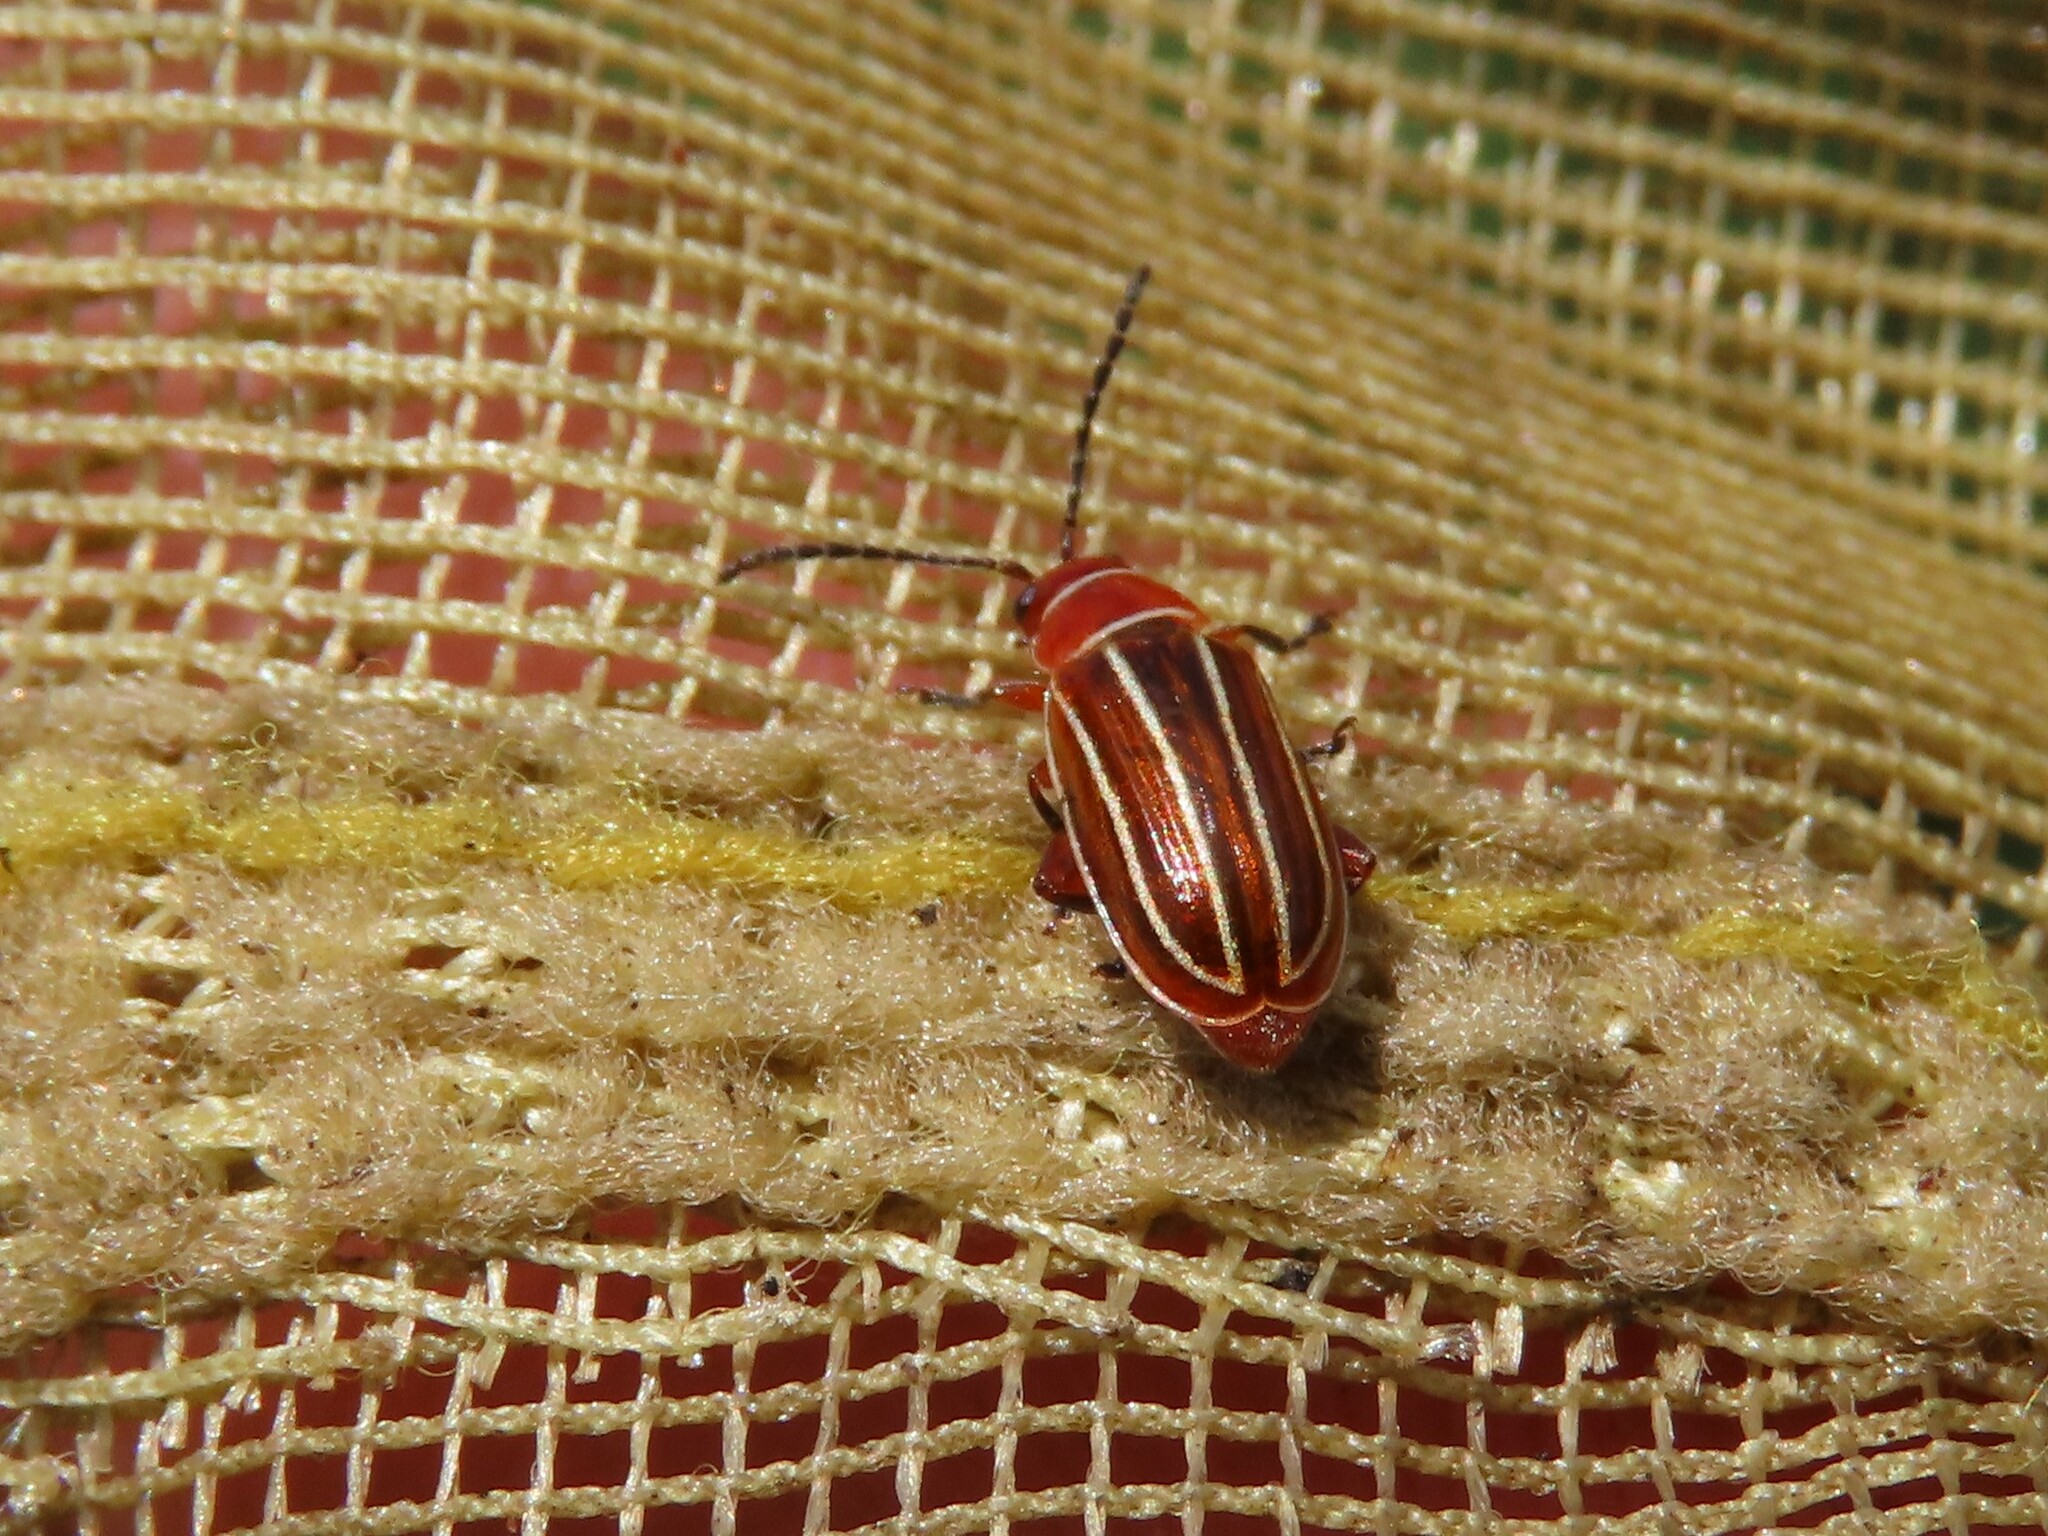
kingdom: Animalia
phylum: Arthropoda
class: Insecta
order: Coleoptera
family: Chrysomelidae
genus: Disonycha
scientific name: Disonycha conjugata
